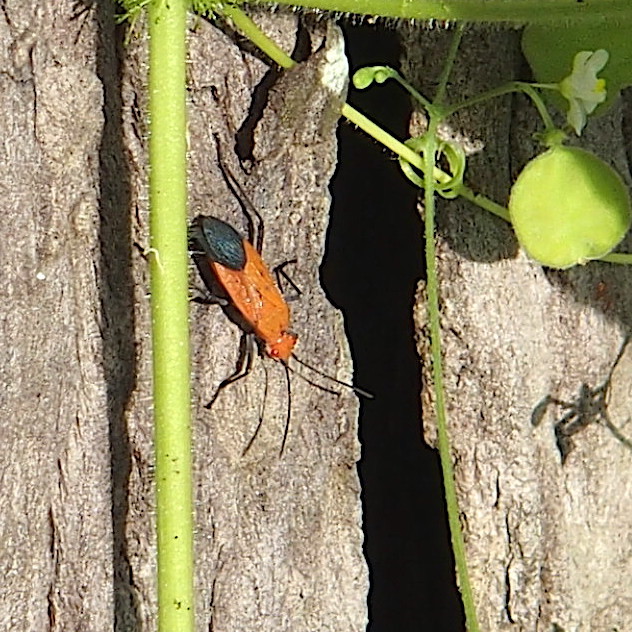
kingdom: Animalia
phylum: Arthropoda
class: Insecta
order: Hemiptera
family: Rhopalidae
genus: Leptocoris
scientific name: Leptocoris augur
